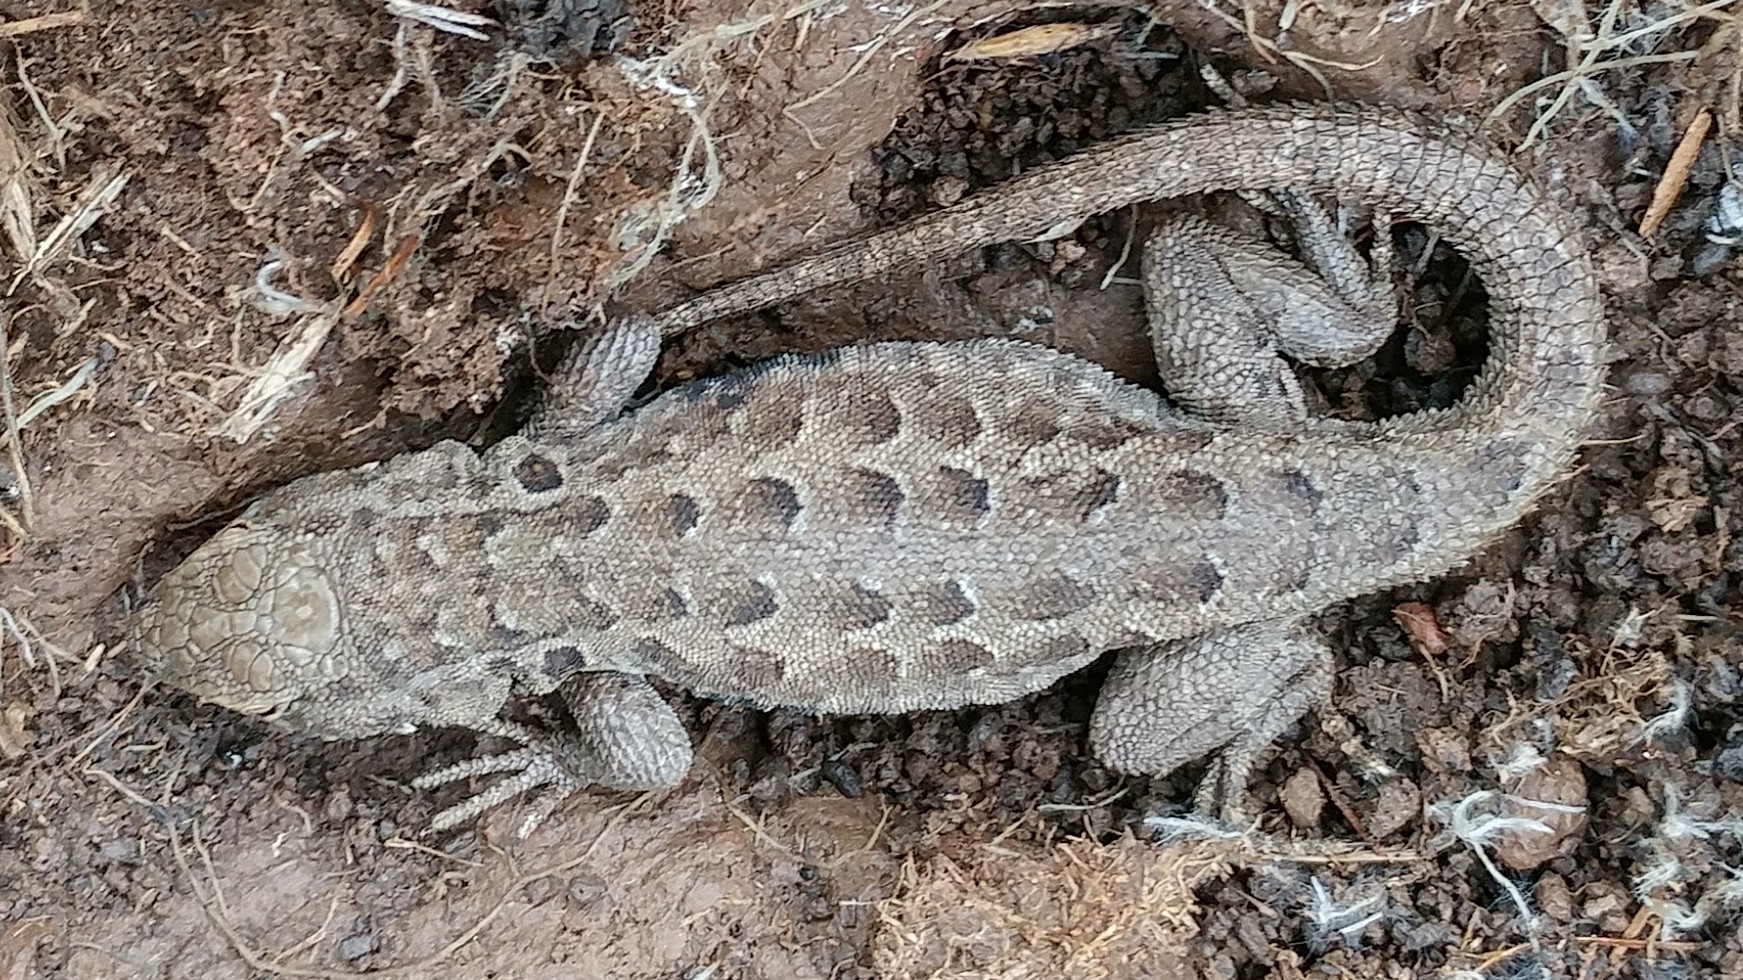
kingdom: Animalia
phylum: Chordata
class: Squamata
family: Phrynosomatidae
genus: Uta
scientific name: Uta stansburiana
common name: Side-blotched lizard
